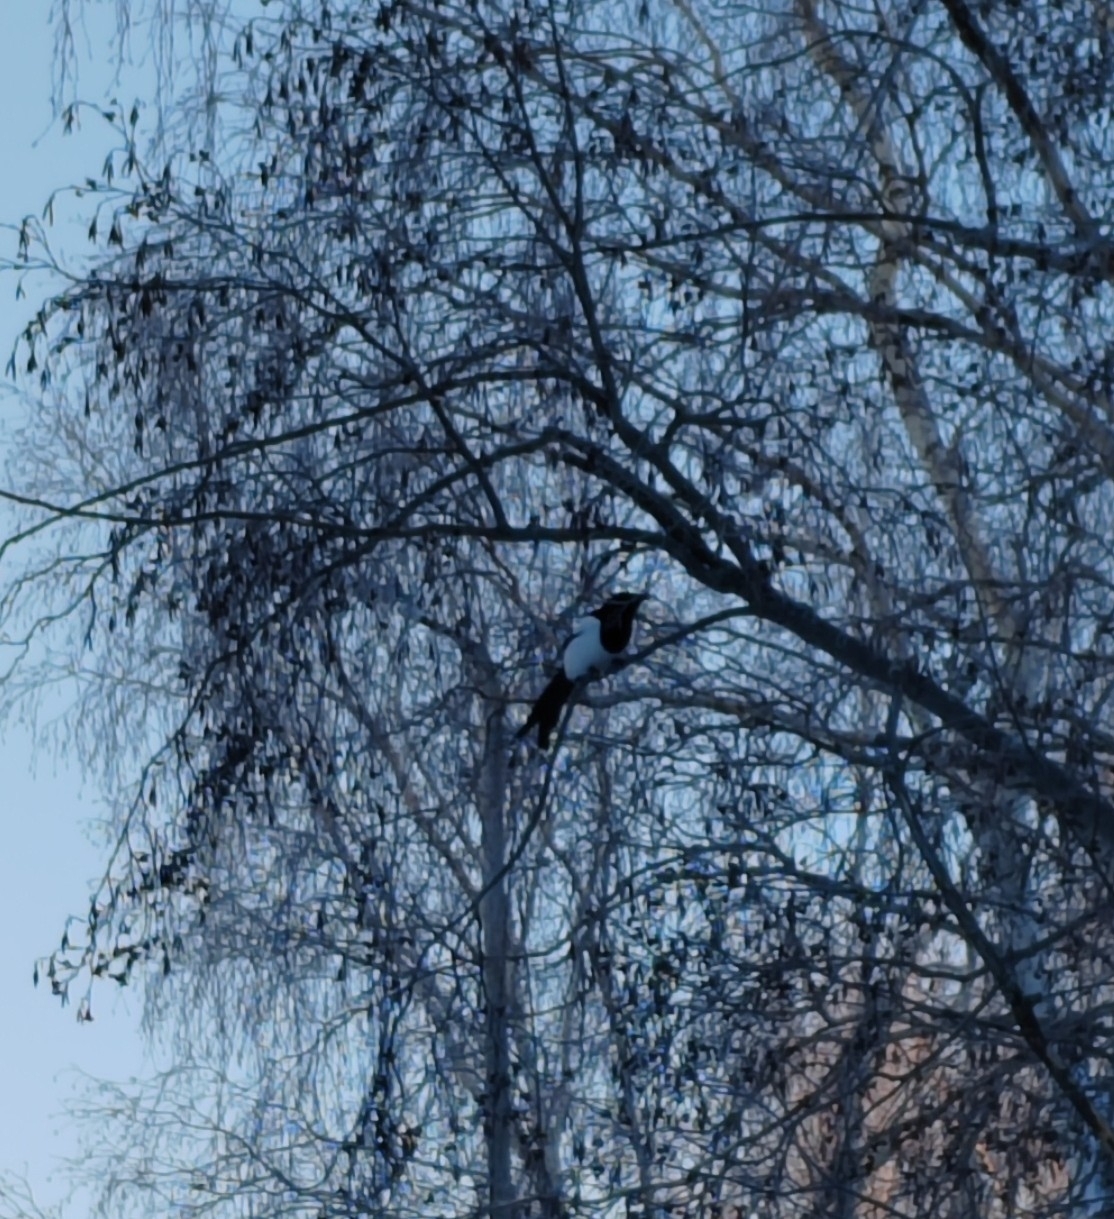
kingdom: Animalia
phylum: Chordata
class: Aves
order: Passeriformes
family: Corvidae
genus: Pica
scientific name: Pica pica
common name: Eurasian magpie
